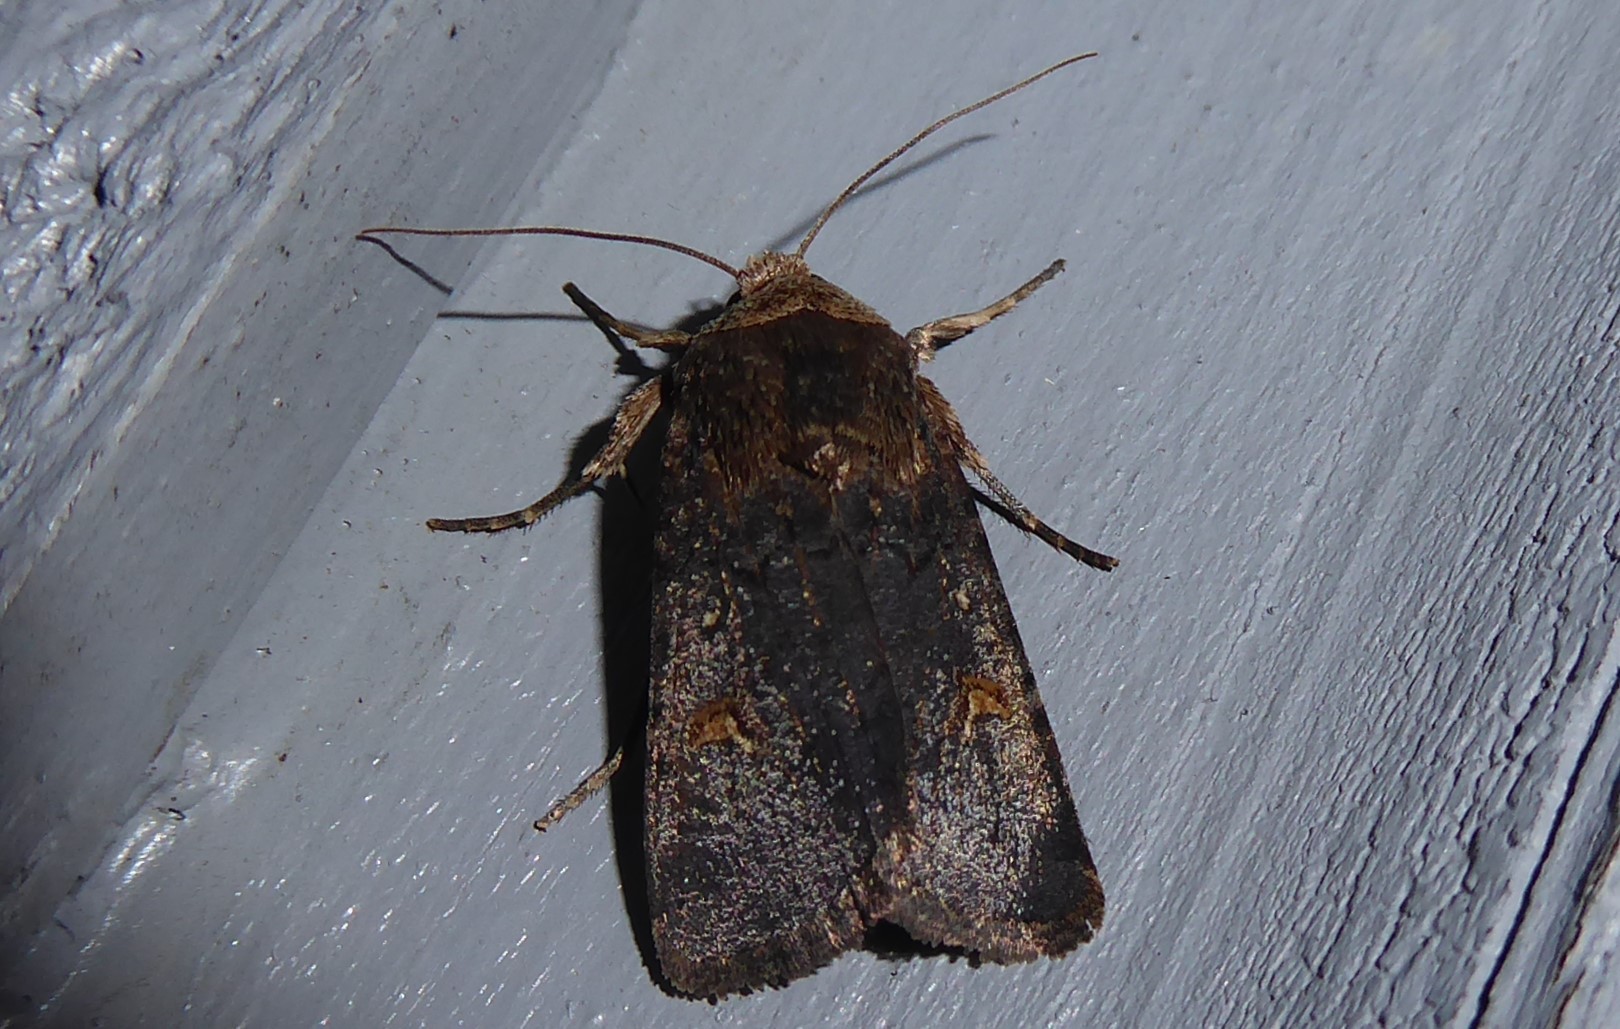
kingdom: Animalia
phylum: Arthropoda
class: Insecta
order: Lepidoptera
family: Noctuidae
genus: Proteuxoa
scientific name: Proteuxoa tetronycha
